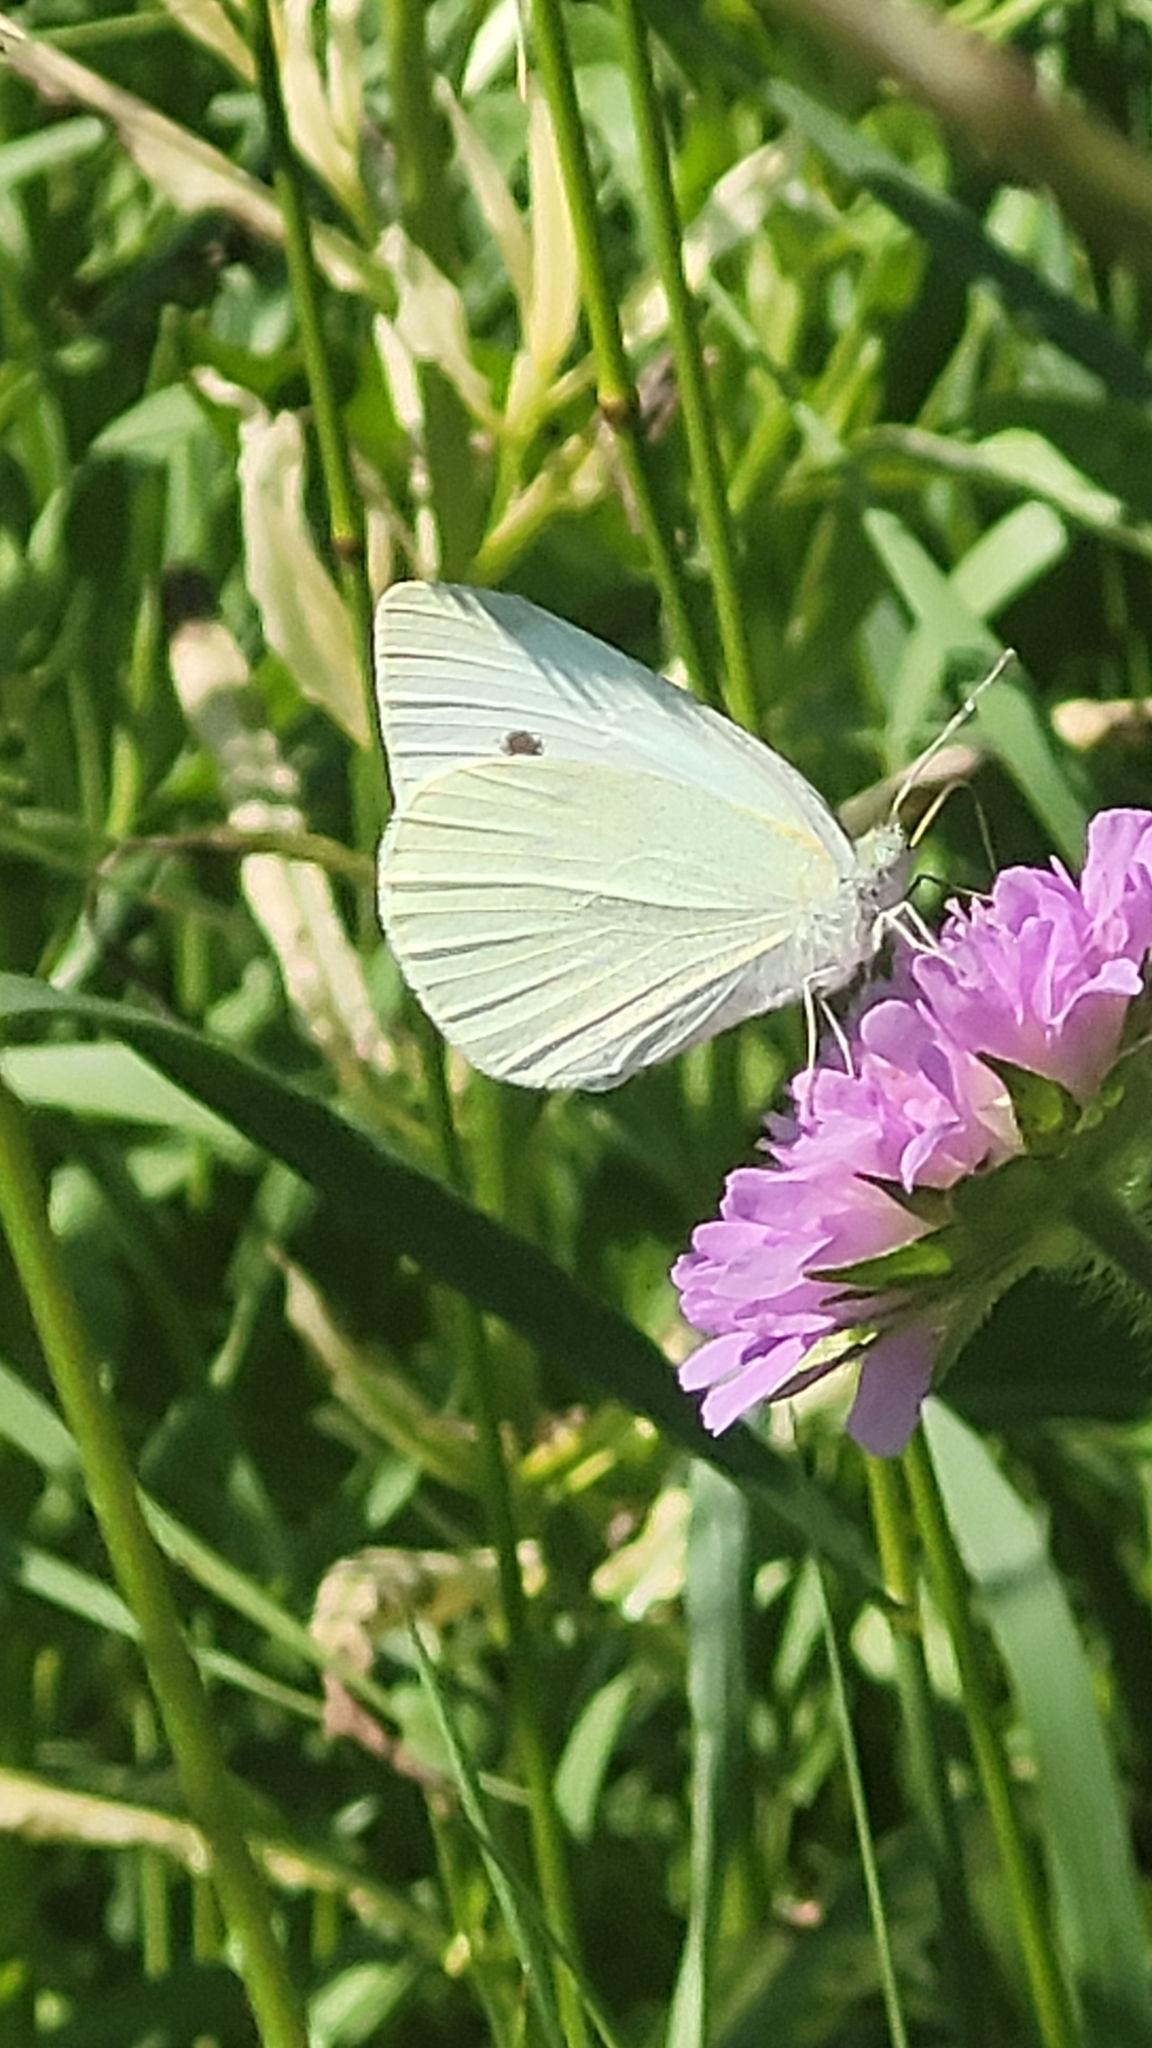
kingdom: Animalia
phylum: Arthropoda
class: Insecta
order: Lepidoptera
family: Pieridae
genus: Pieris
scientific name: Pieris rapae
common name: Small white
